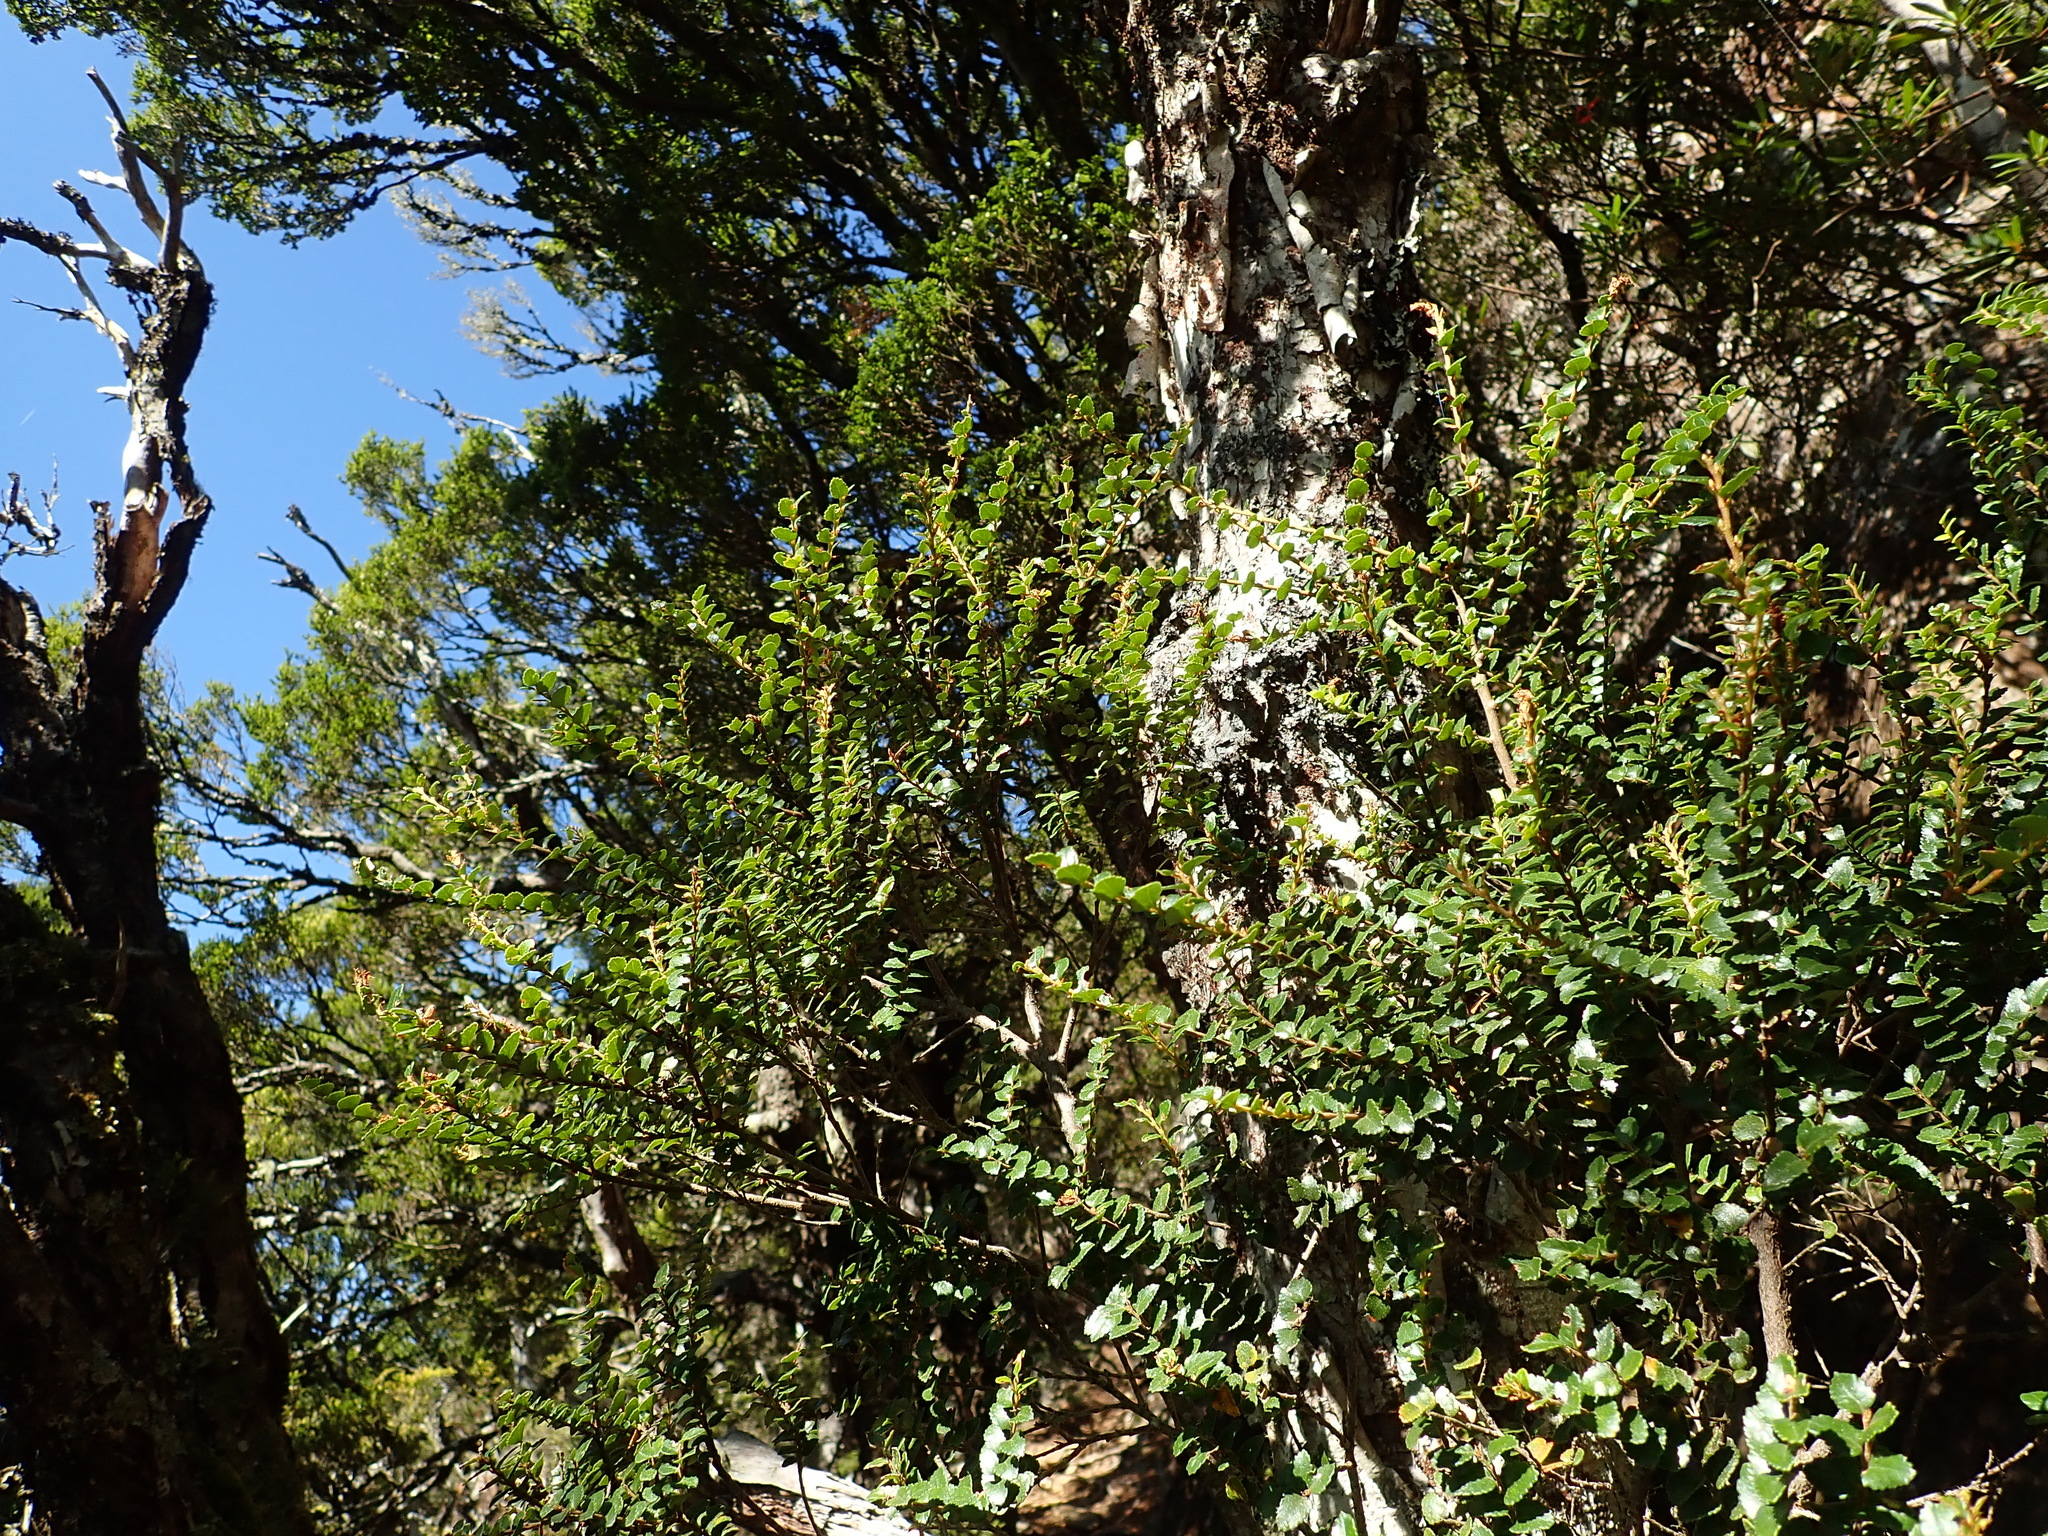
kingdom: Plantae
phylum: Tracheophyta
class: Magnoliopsida
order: Fagales
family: Nothofagaceae
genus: Nothofagus
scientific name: Nothofagus cunninghamii
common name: Myrtle beech
